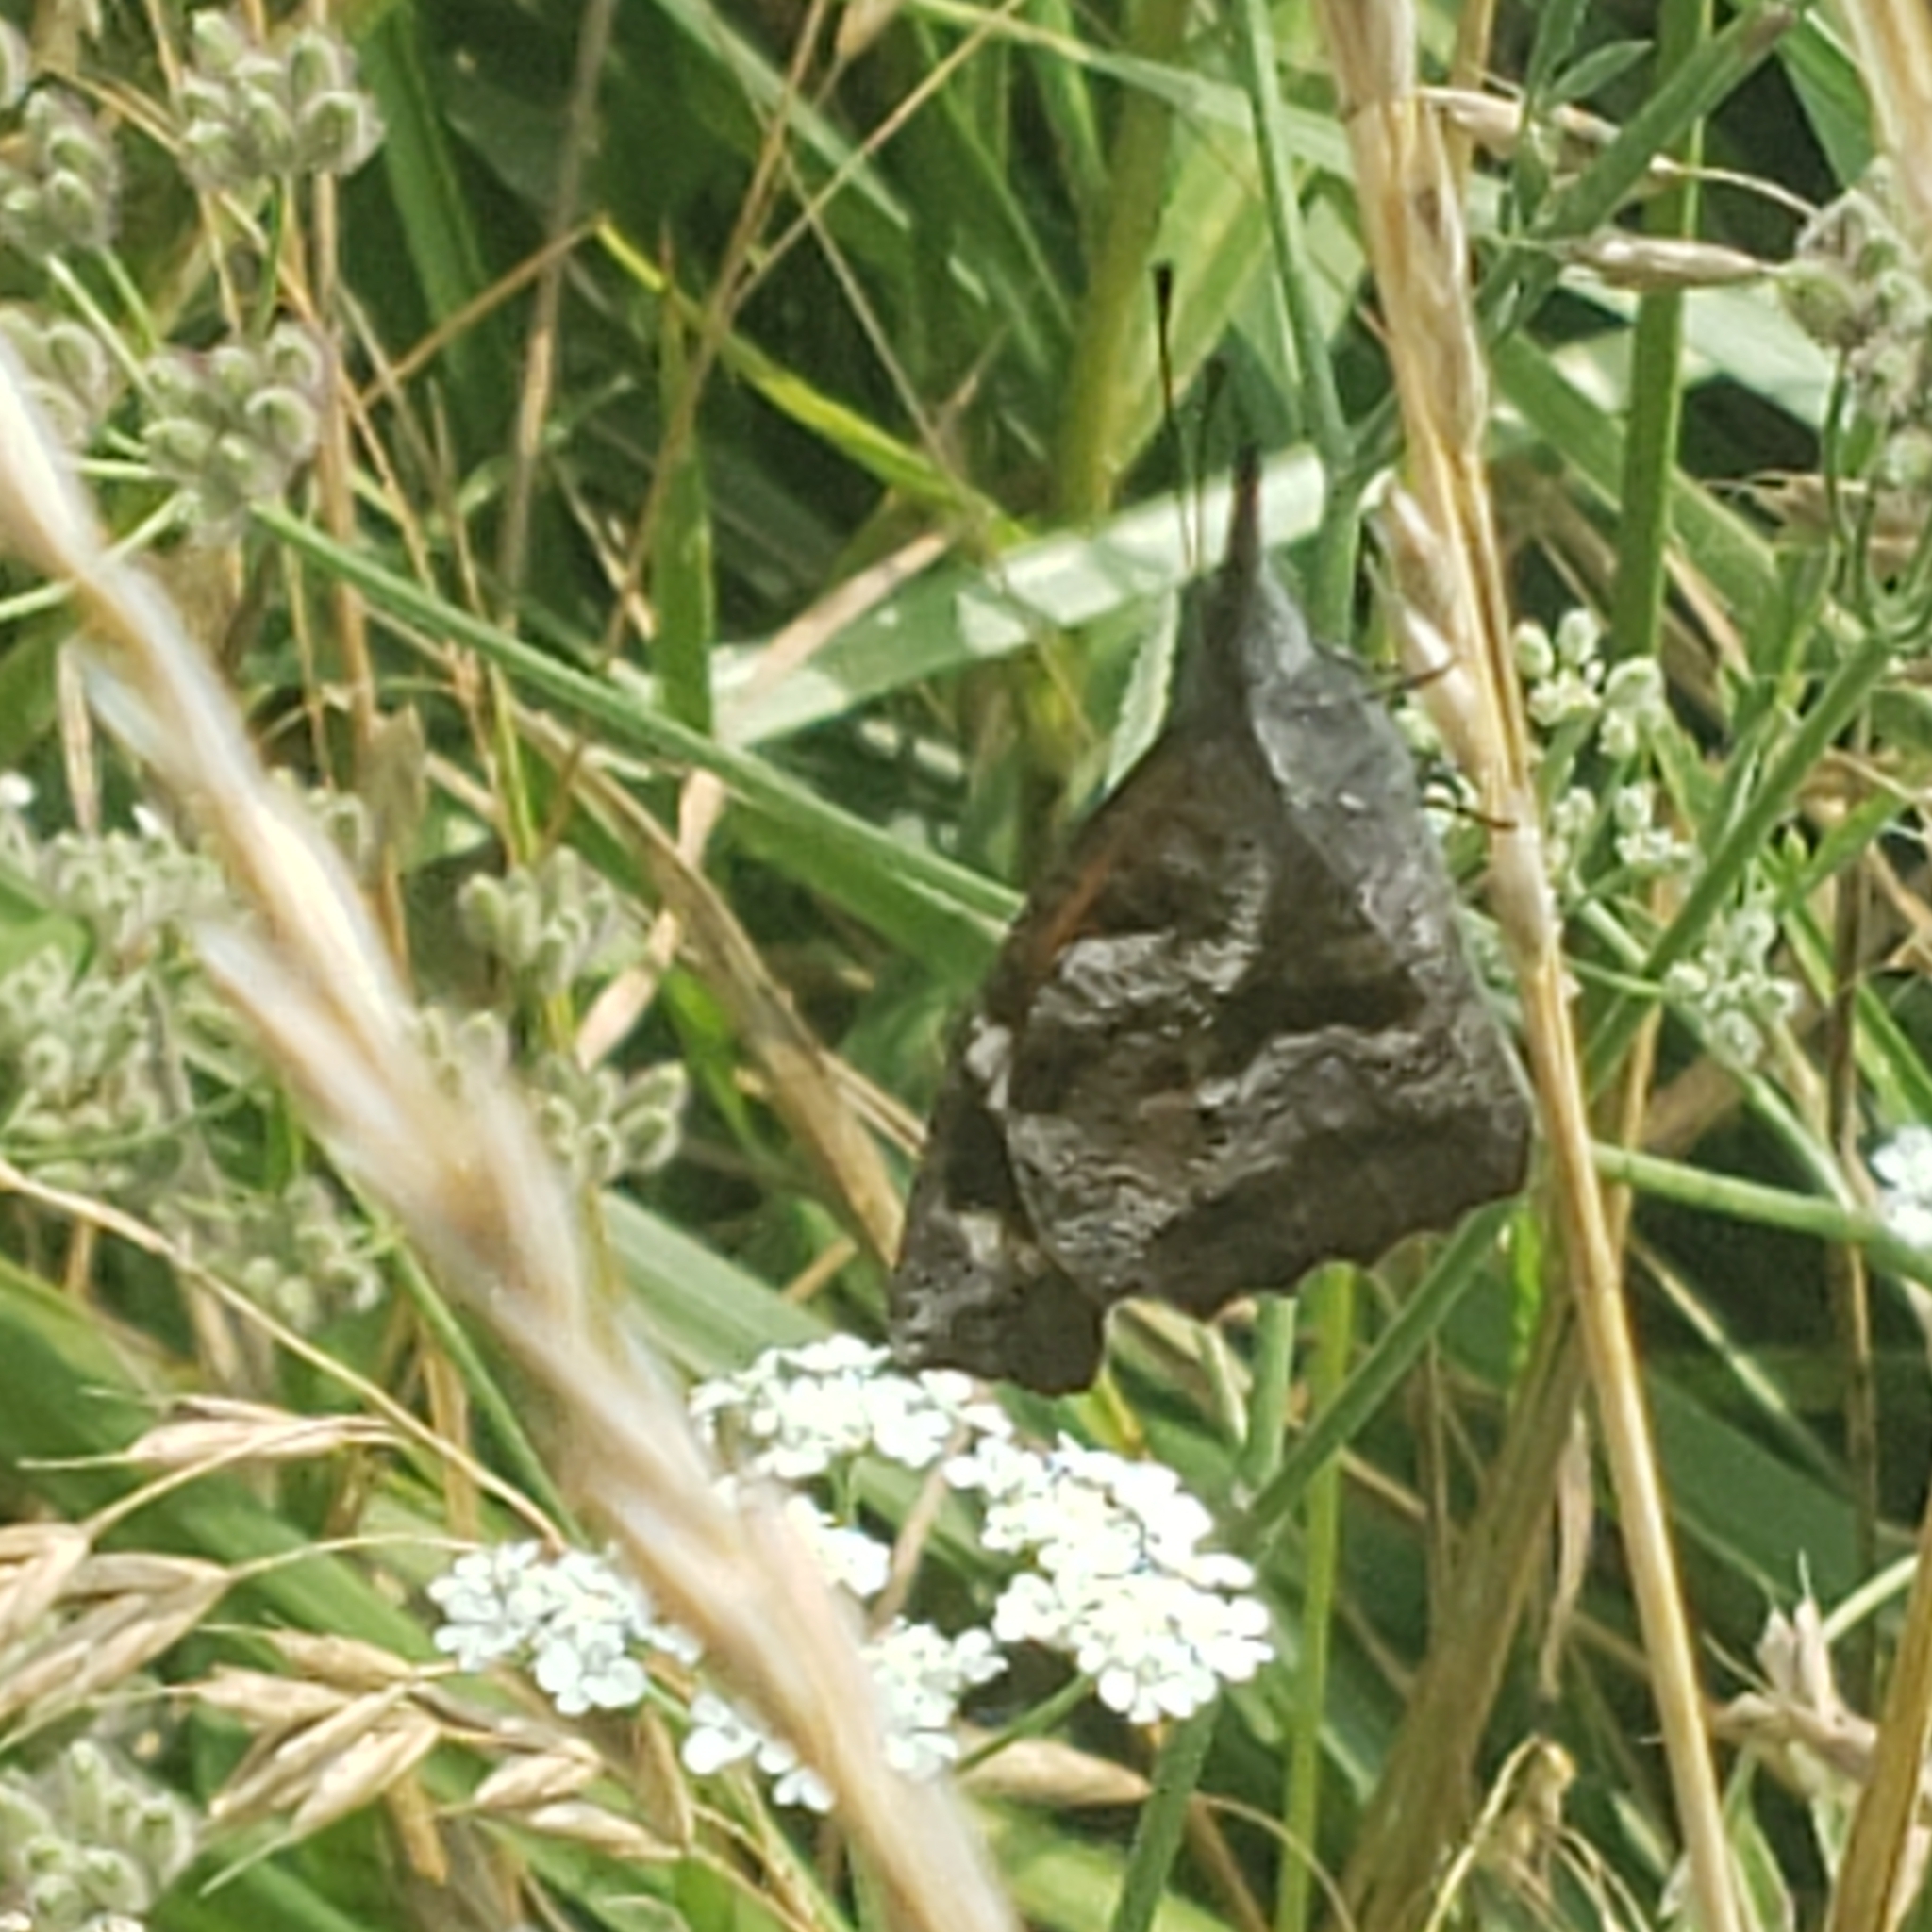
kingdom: Animalia
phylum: Arthropoda
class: Insecta
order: Lepidoptera
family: Nymphalidae
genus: Libytheana
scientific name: Libytheana carinenta
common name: American snout
